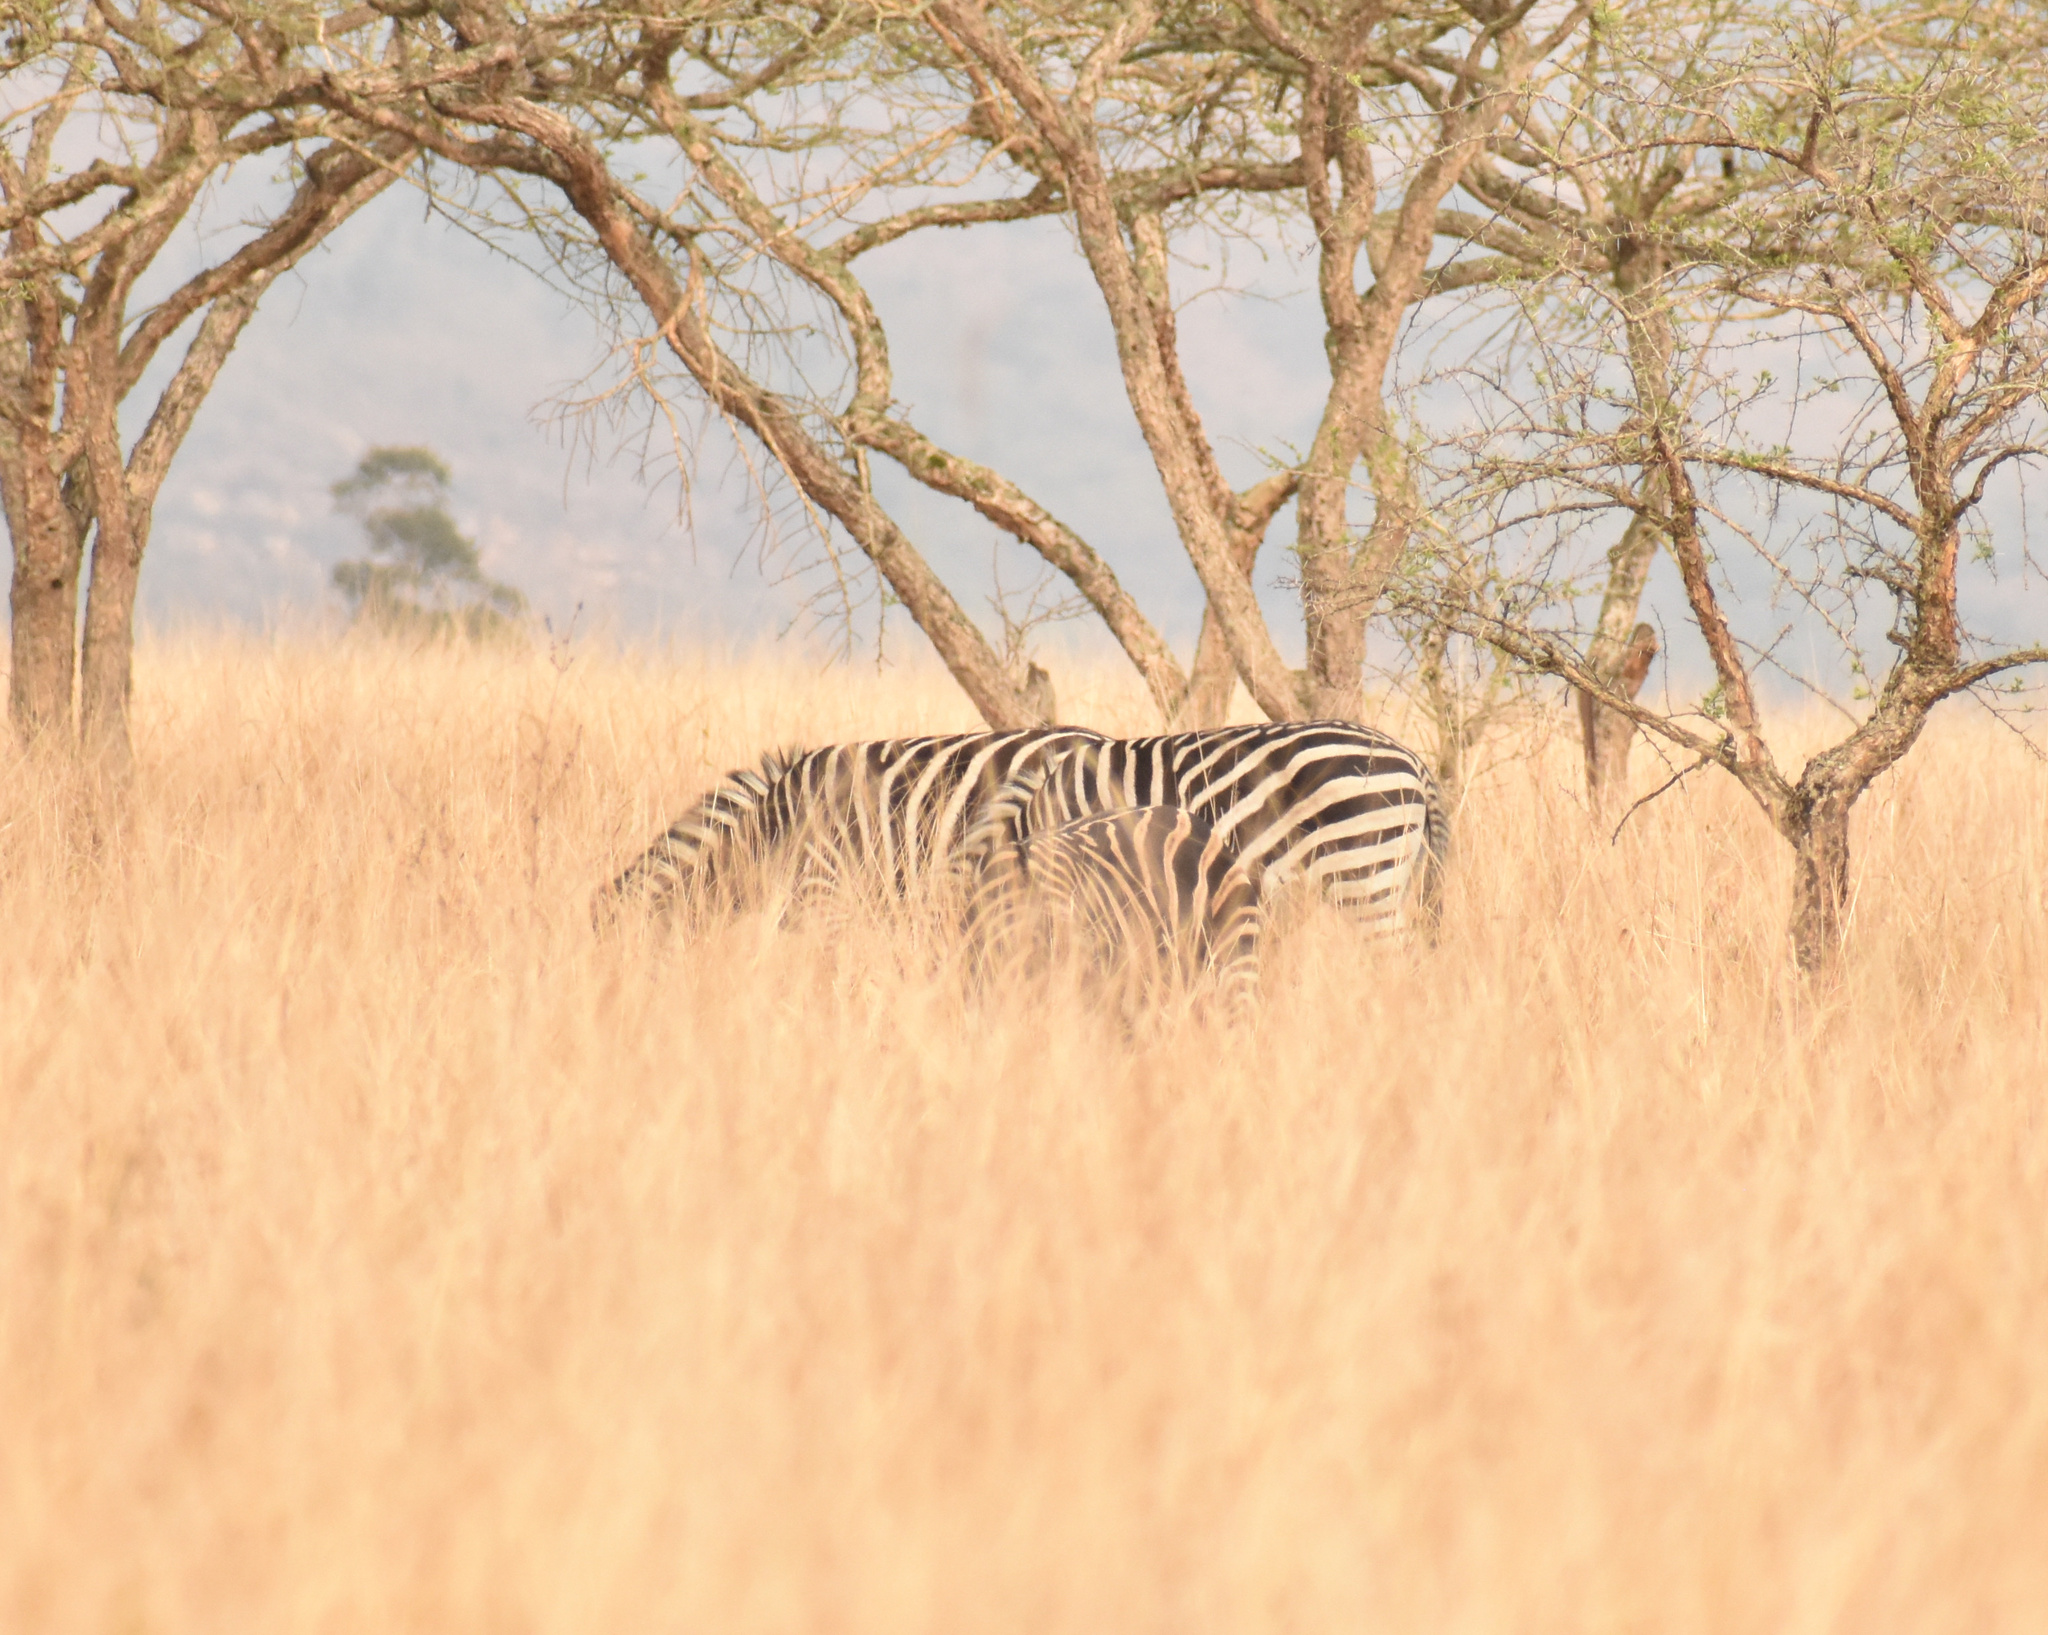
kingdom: Animalia
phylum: Chordata
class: Mammalia
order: Perissodactyla
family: Equidae
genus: Equus
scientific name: Equus quagga
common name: Plains zebra
